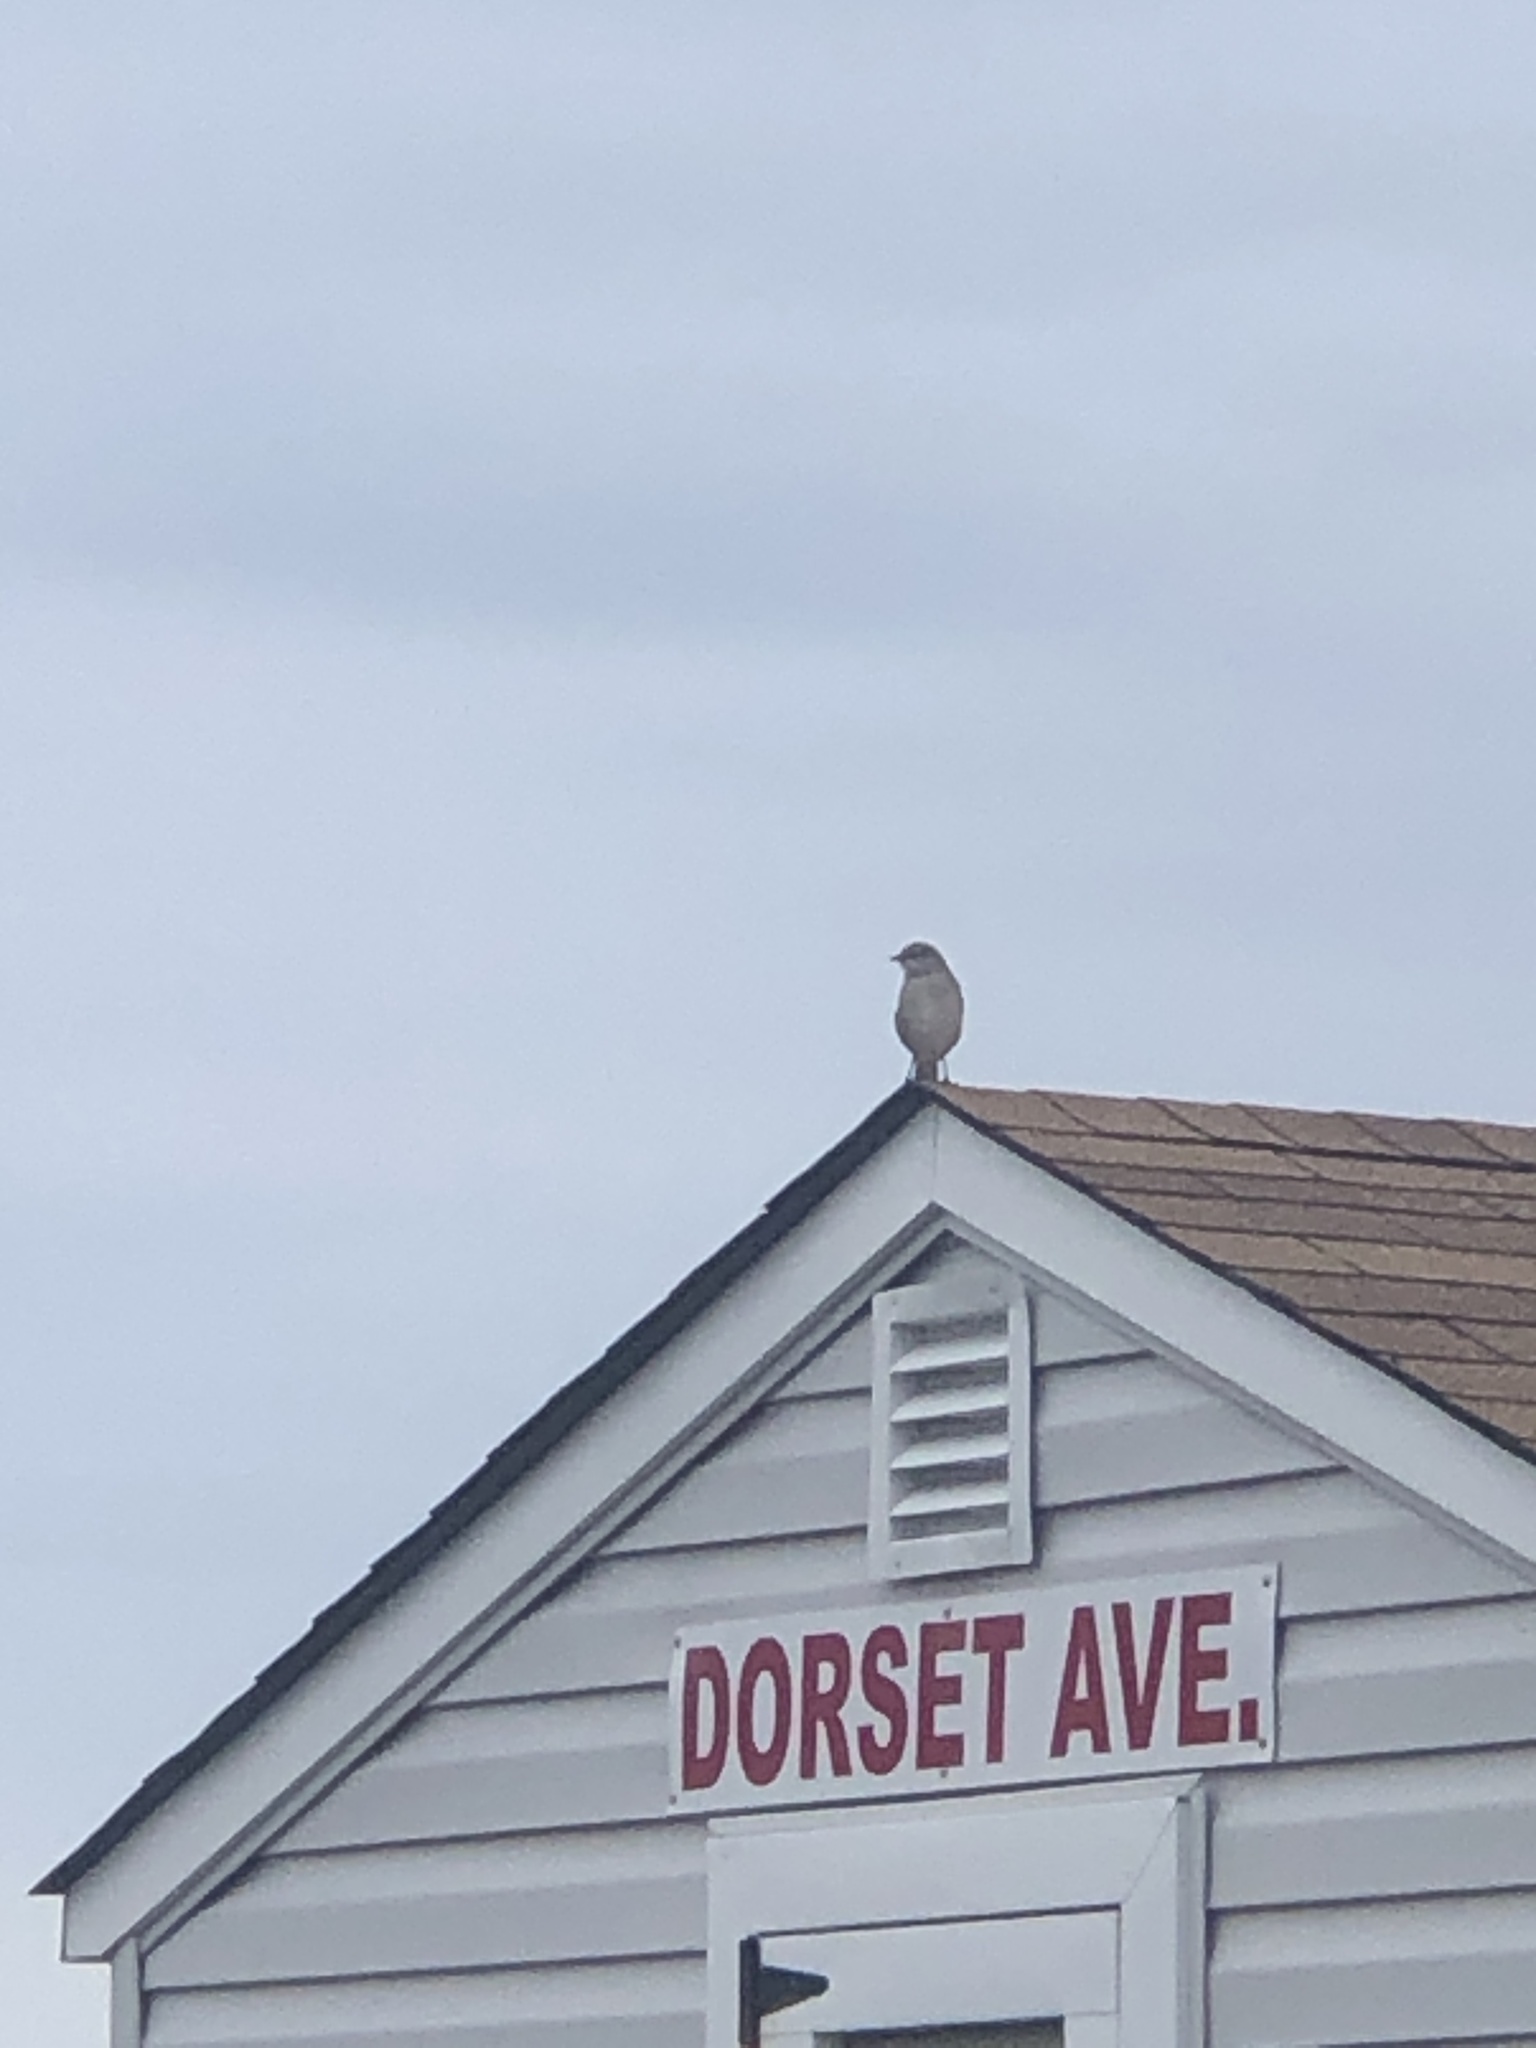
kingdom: Animalia
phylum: Chordata
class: Aves
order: Passeriformes
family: Mimidae
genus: Mimus
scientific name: Mimus polyglottos
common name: Northern mockingbird
